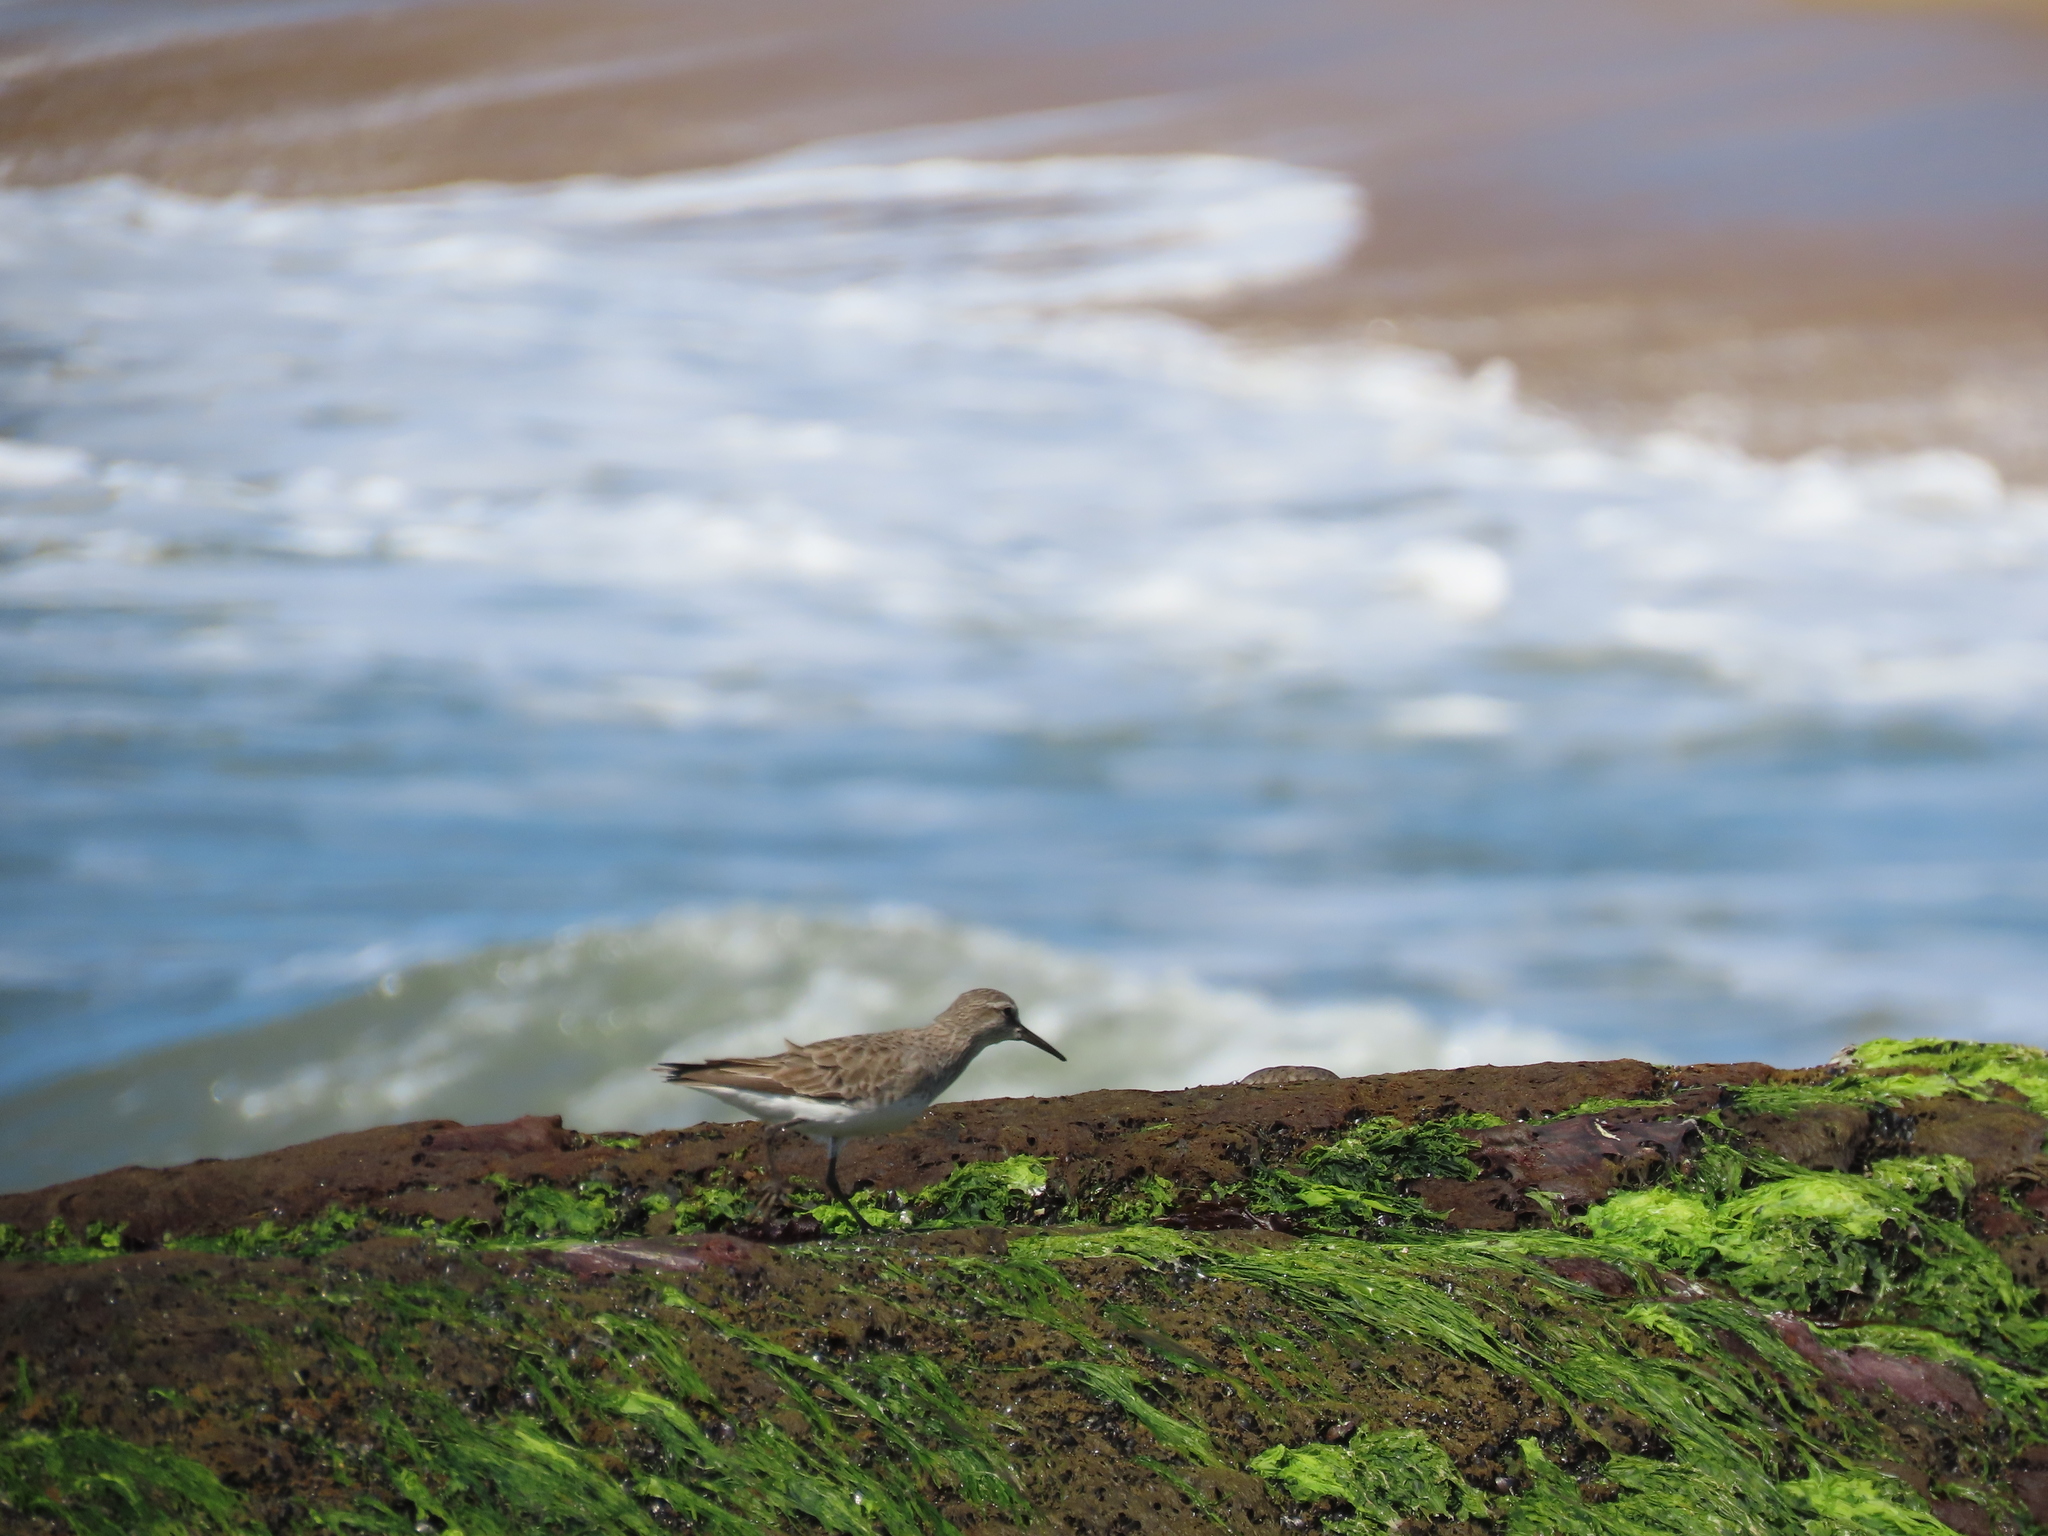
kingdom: Animalia
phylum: Chordata
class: Aves
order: Charadriiformes
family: Scolopacidae
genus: Calidris
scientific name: Calidris fuscicollis
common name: White-rumped sandpiper
